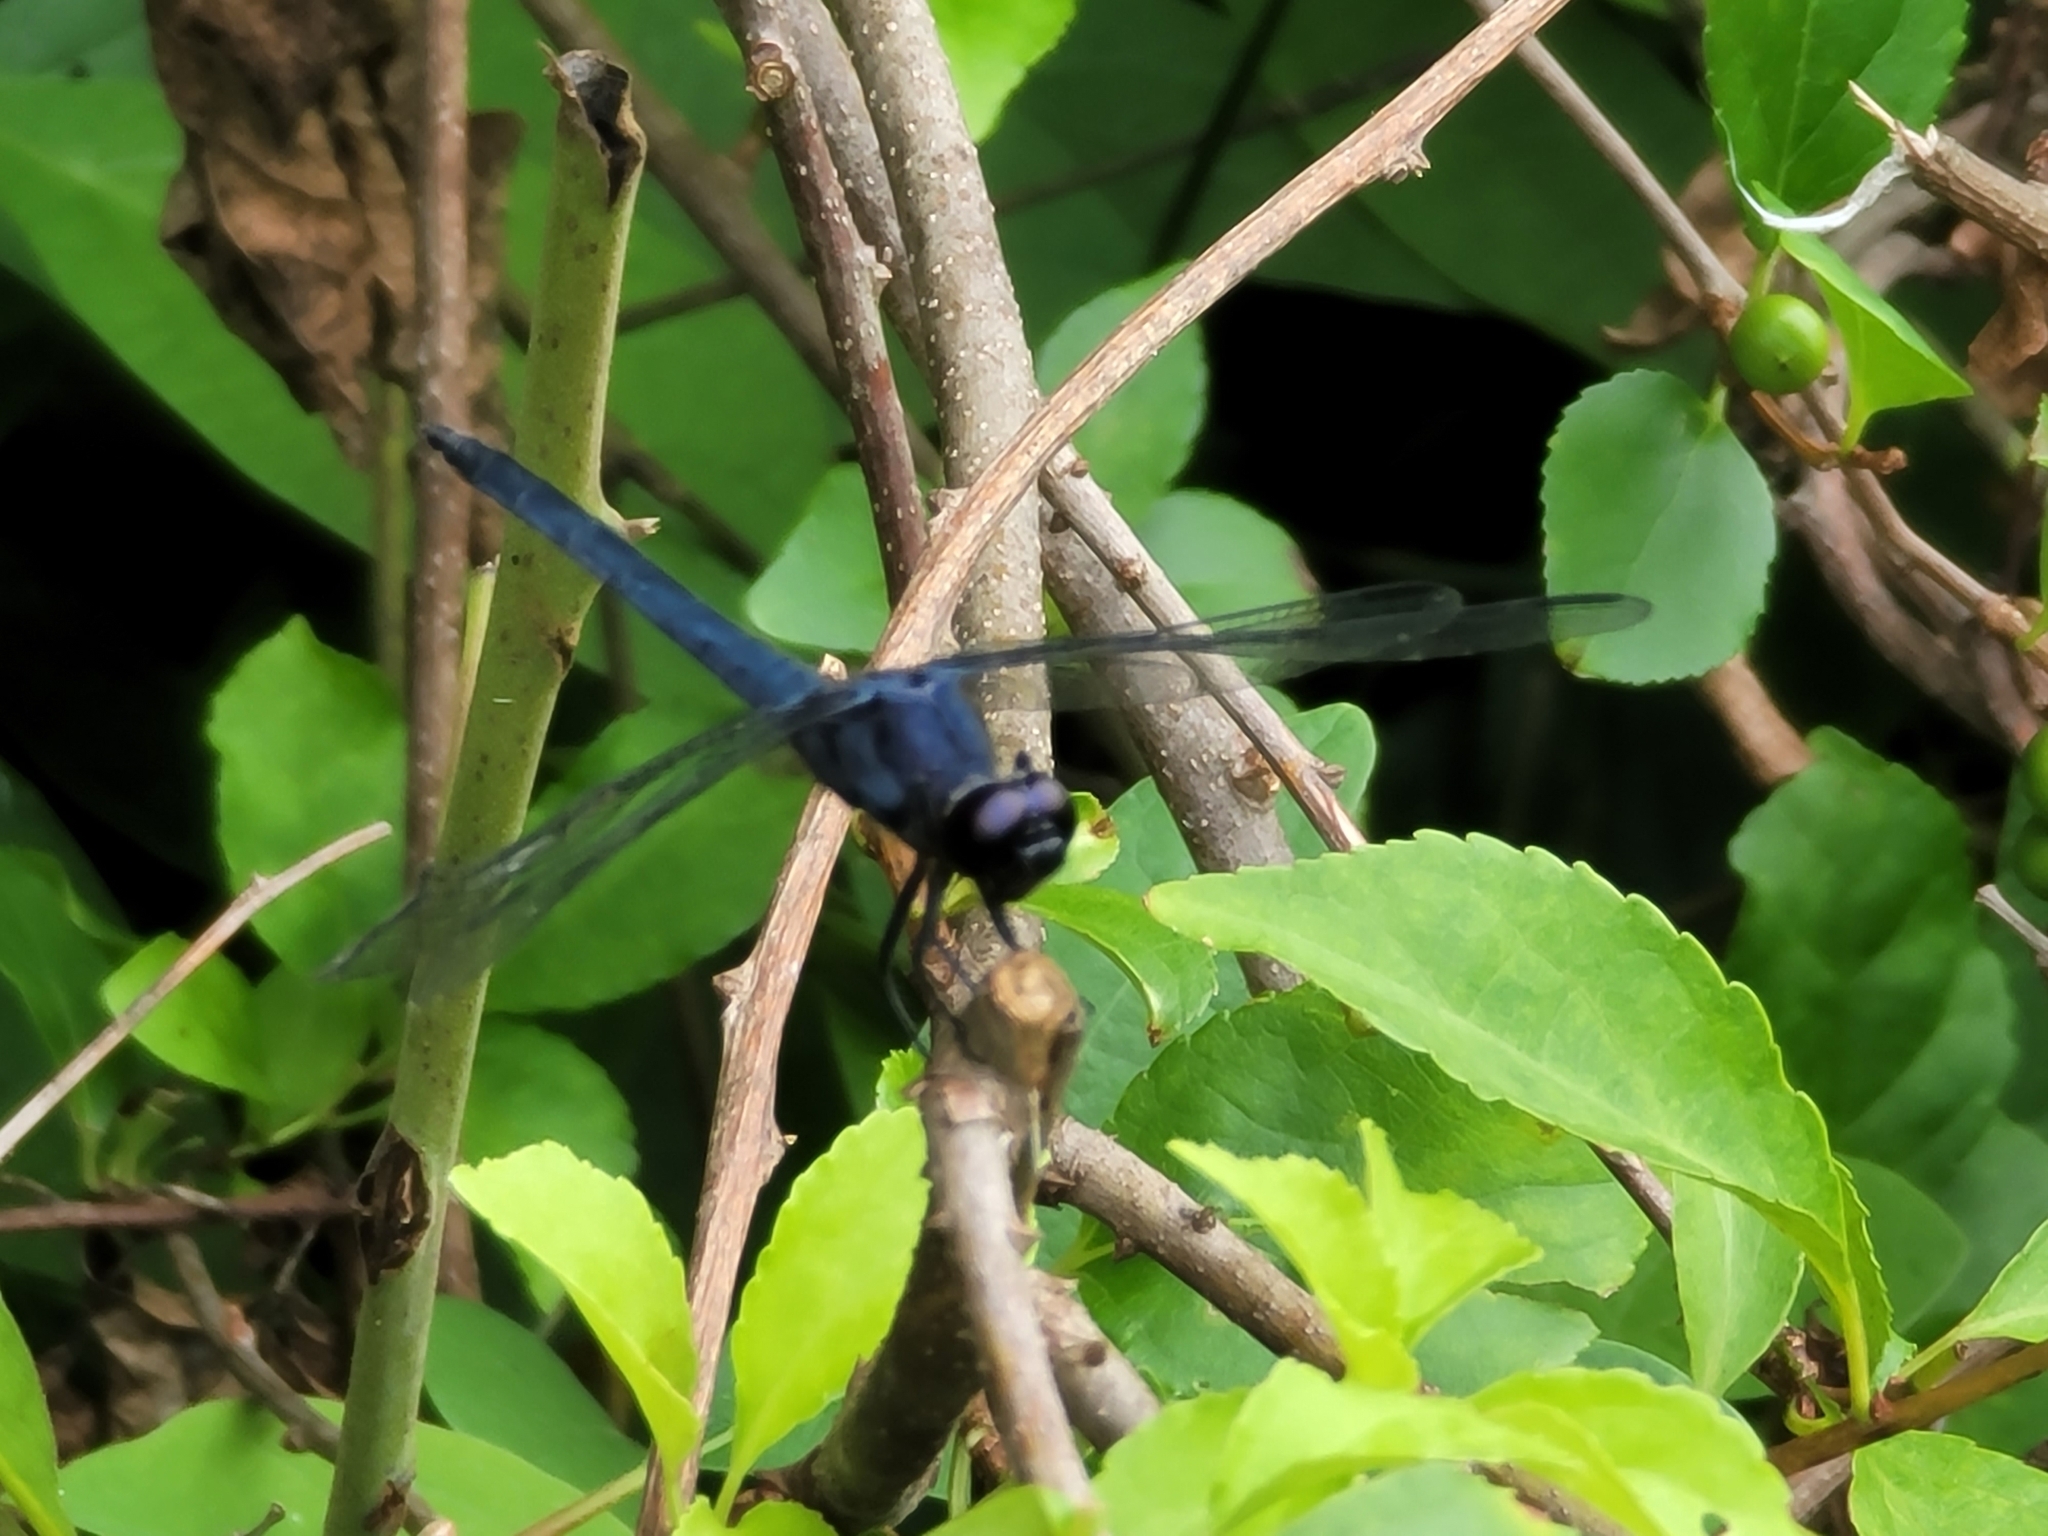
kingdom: Animalia
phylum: Arthropoda
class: Insecta
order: Odonata
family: Libellulidae
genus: Libellula
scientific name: Libellula incesta
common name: Slaty skimmer
